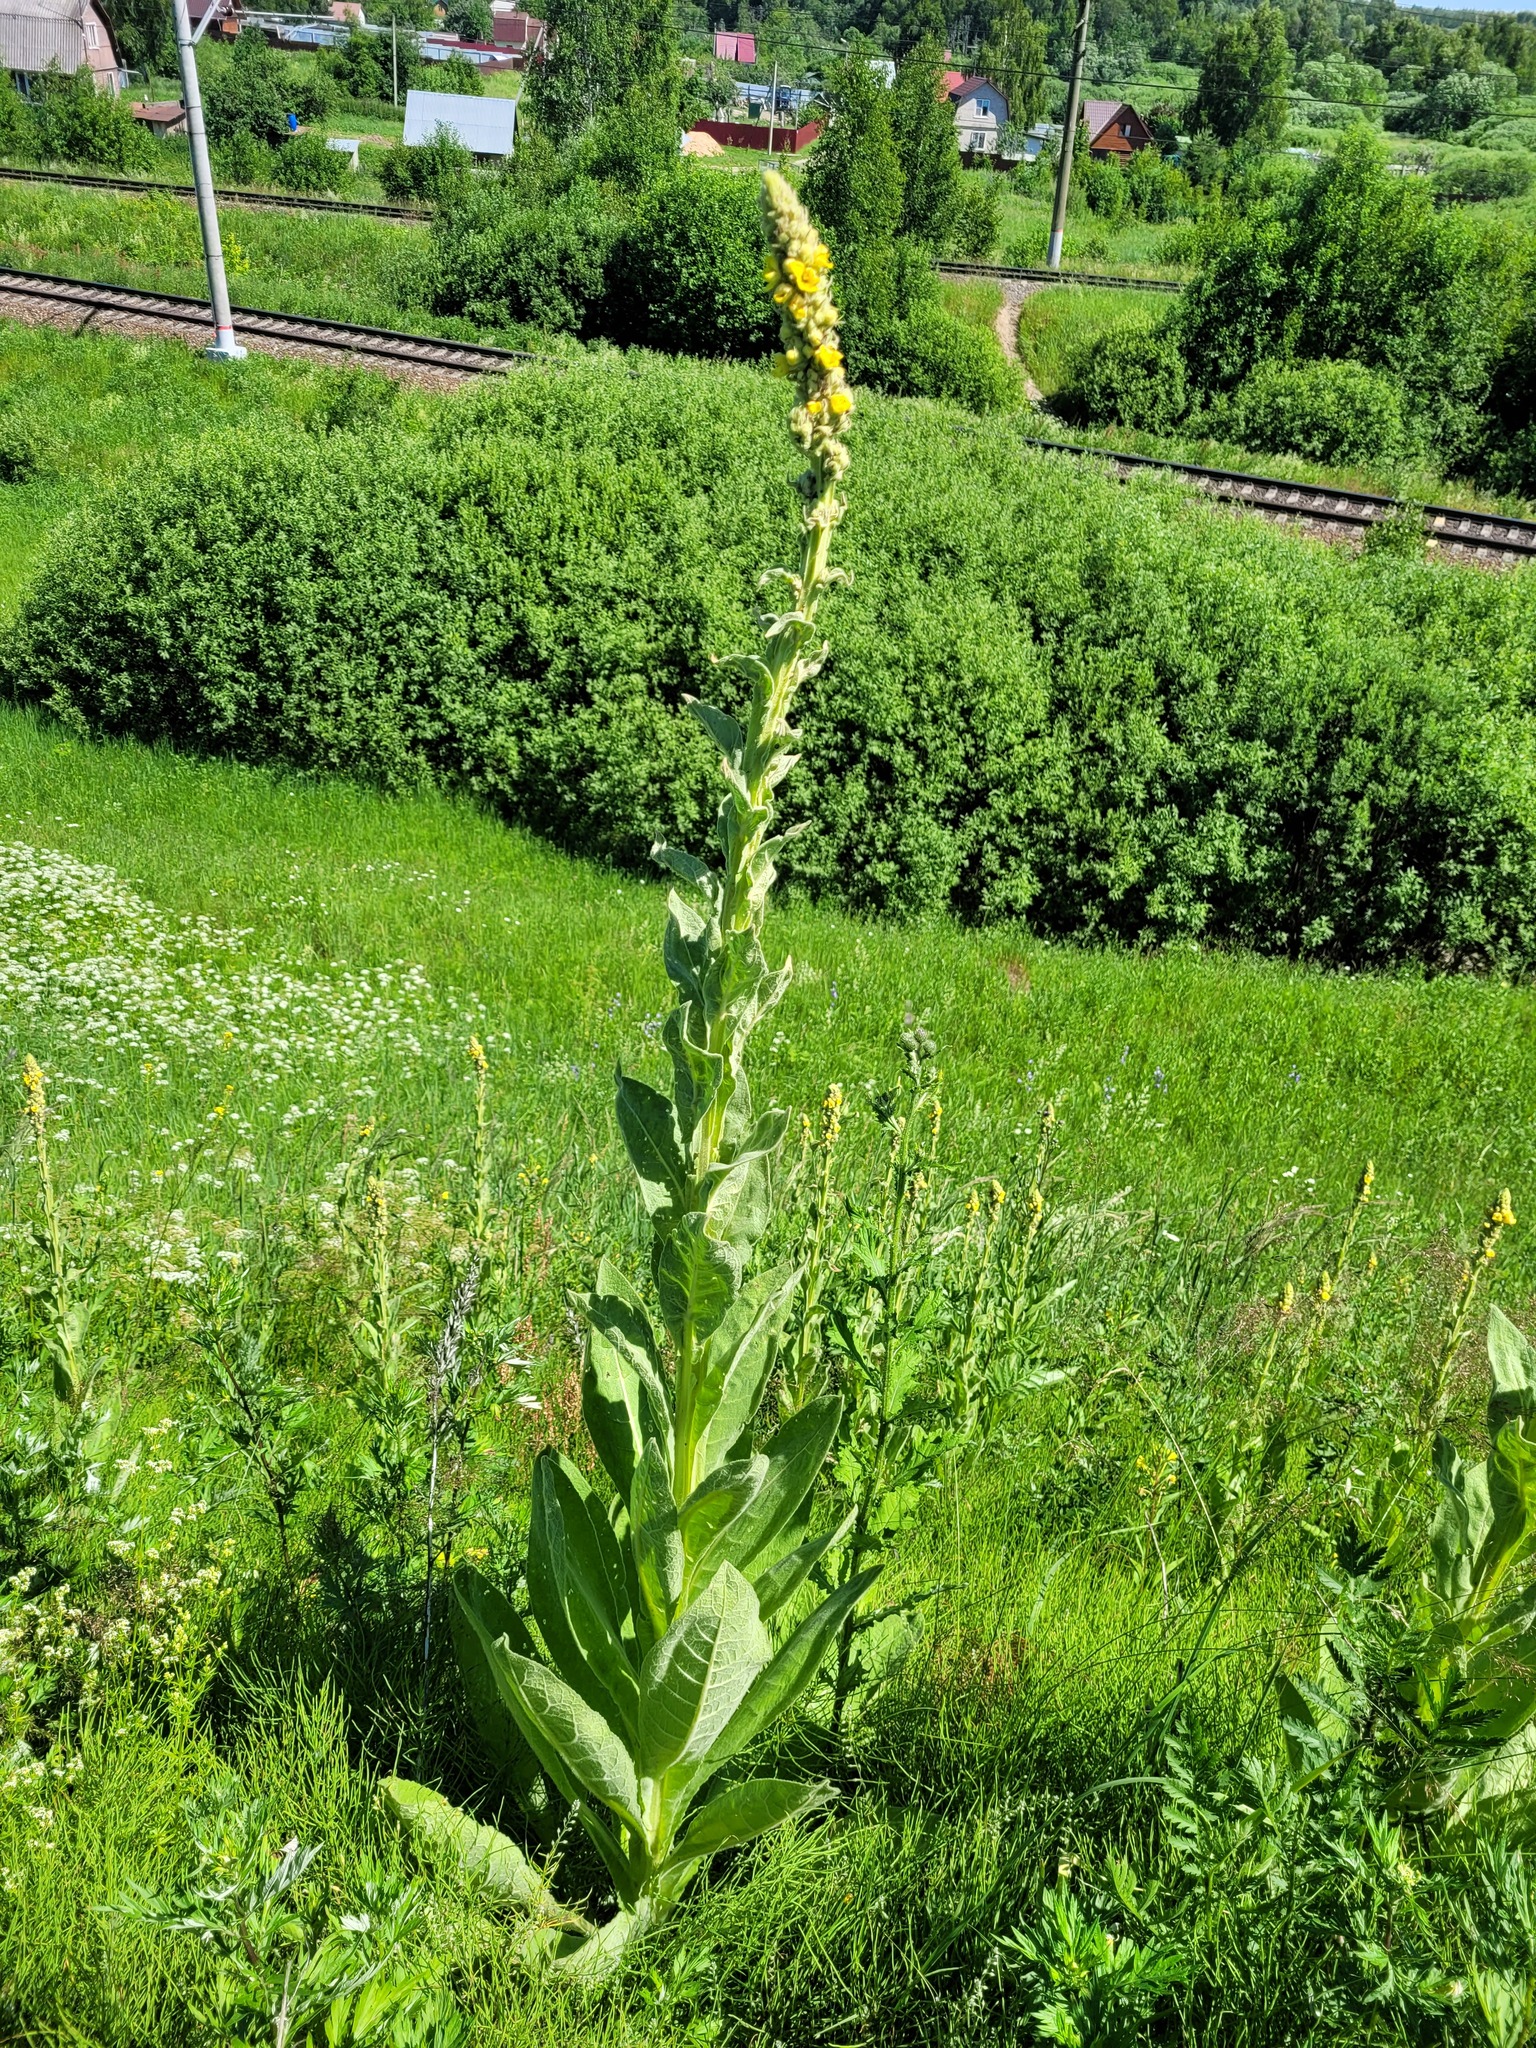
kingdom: Plantae
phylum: Tracheophyta
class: Magnoliopsida
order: Lamiales
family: Scrophulariaceae
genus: Verbascum
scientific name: Verbascum thapsus
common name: Common mullein
